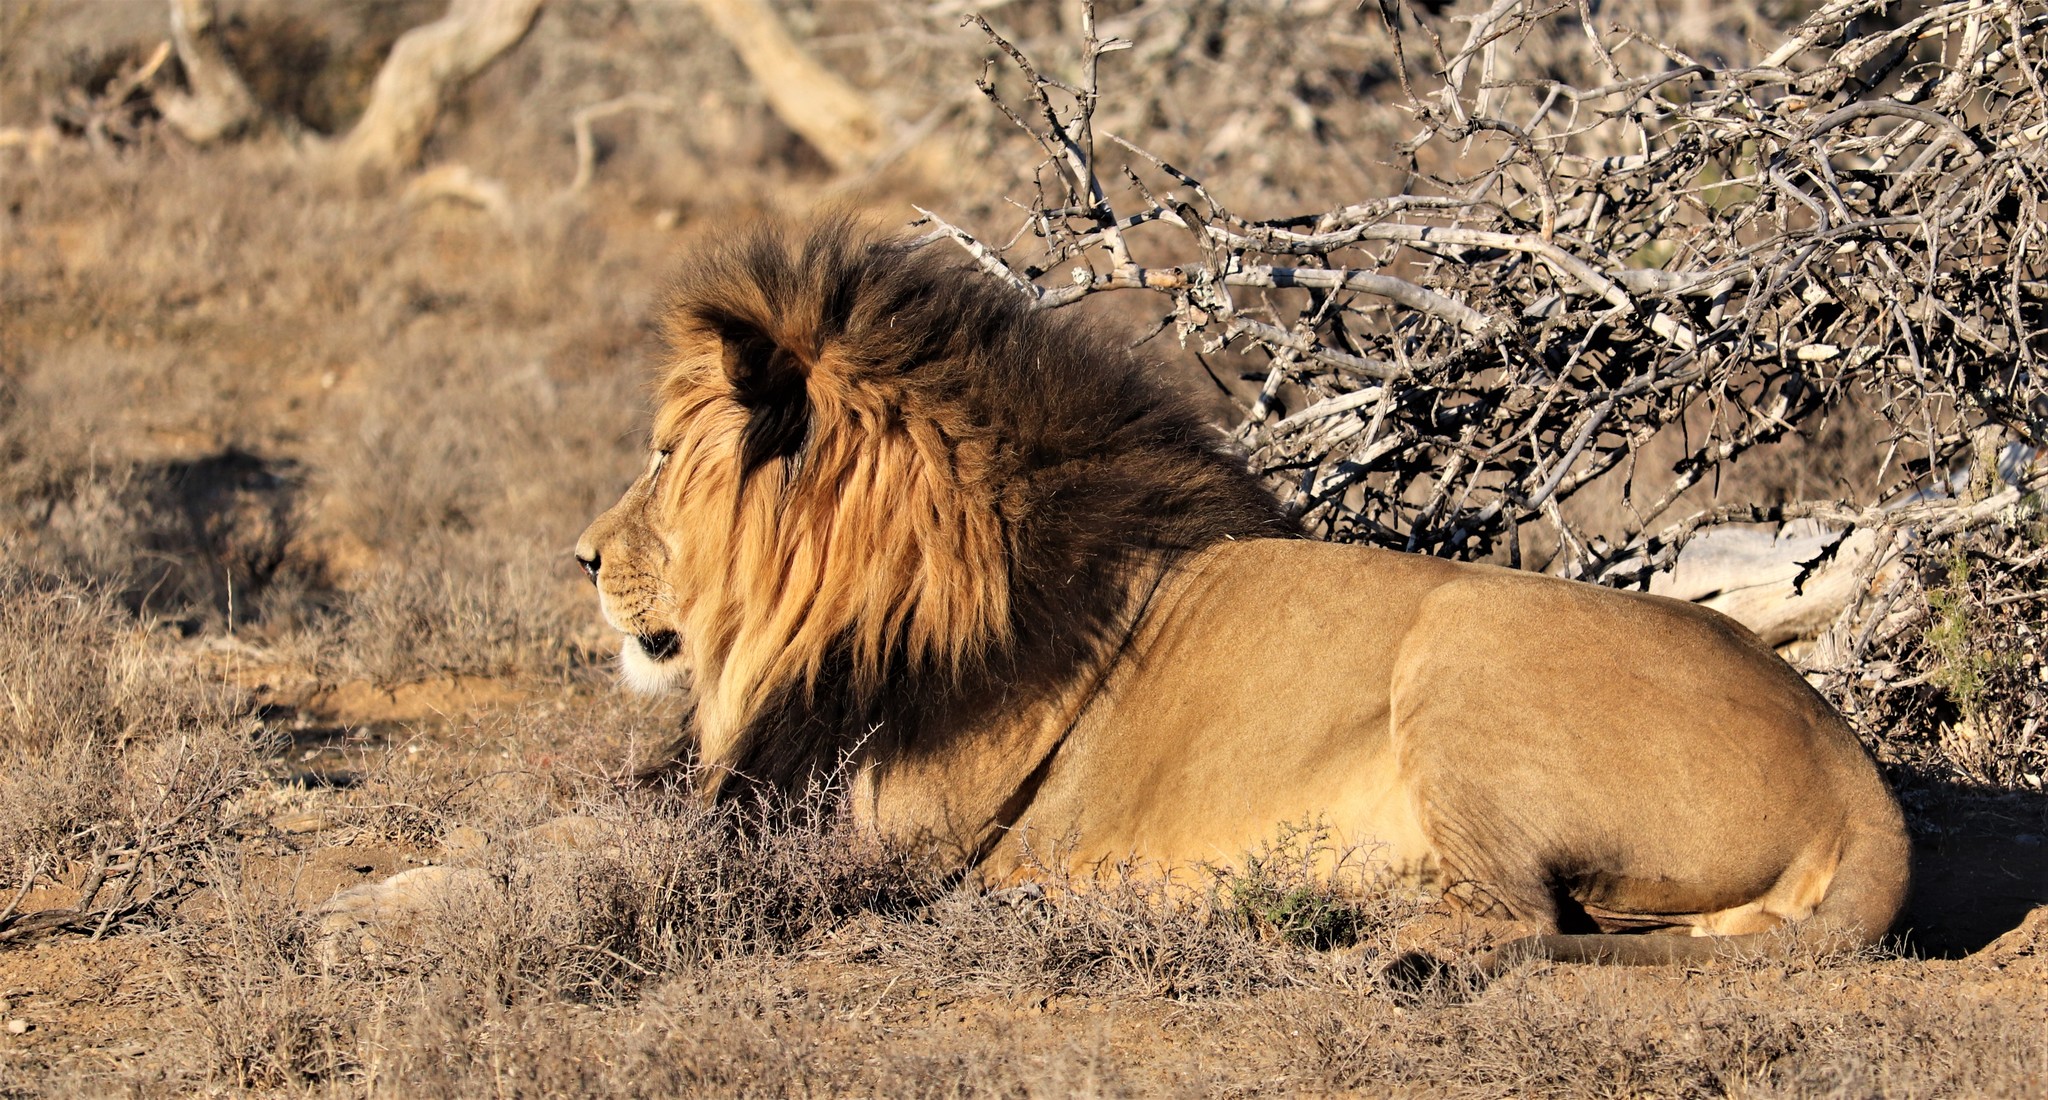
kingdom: Animalia
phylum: Chordata
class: Mammalia
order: Carnivora
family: Felidae
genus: Panthera
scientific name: Panthera leo
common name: Lion
